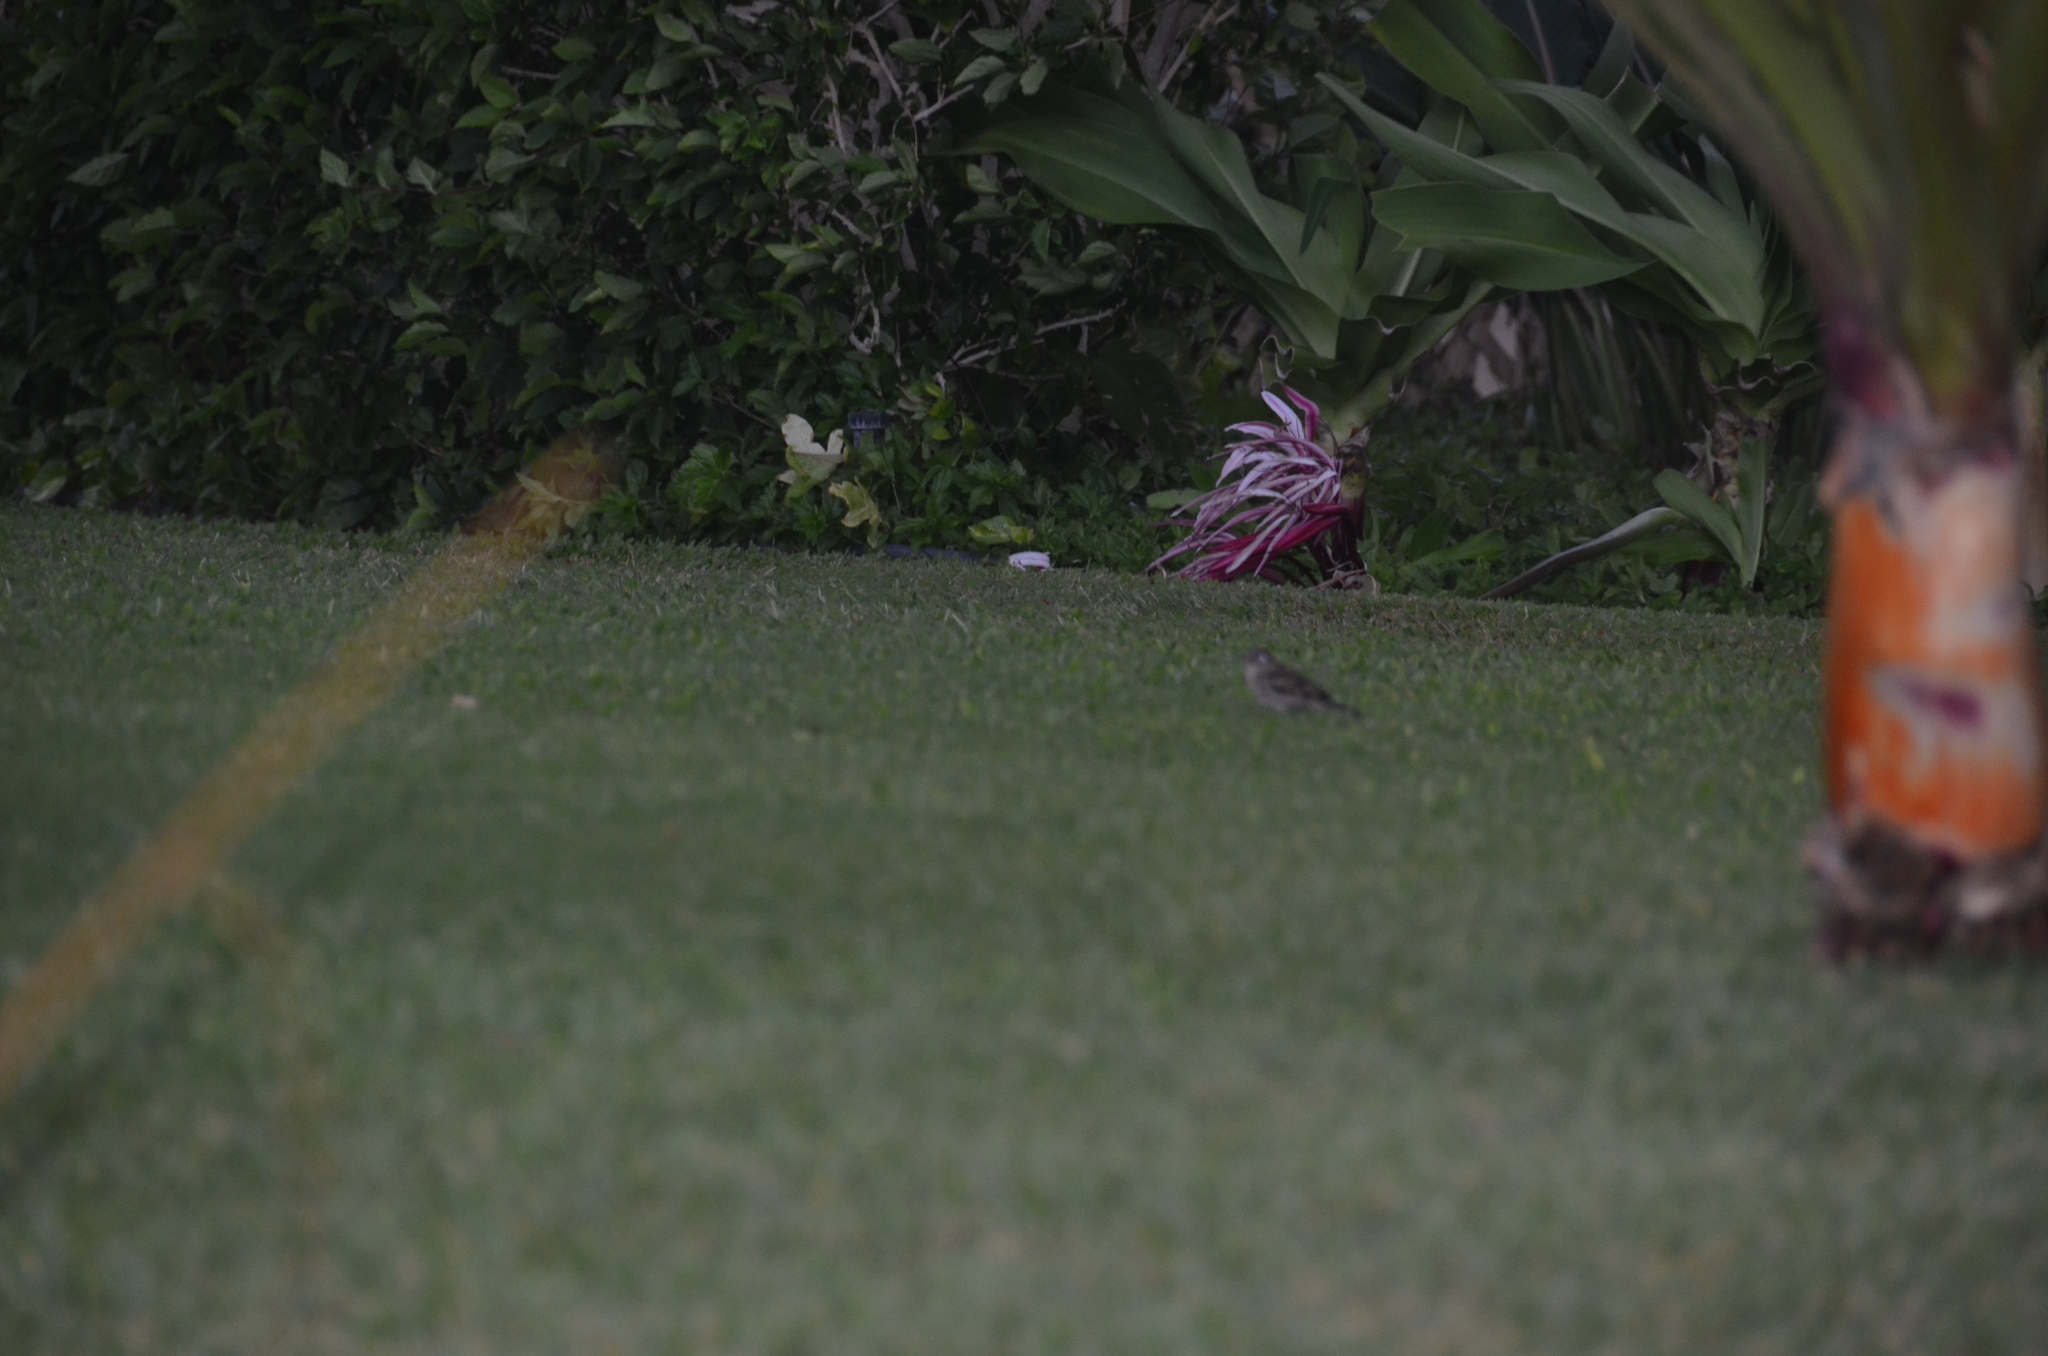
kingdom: Animalia
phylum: Chordata
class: Aves
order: Passeriformes
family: Passeridae
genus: Passer
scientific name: Passer domesticus
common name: House sparrow
